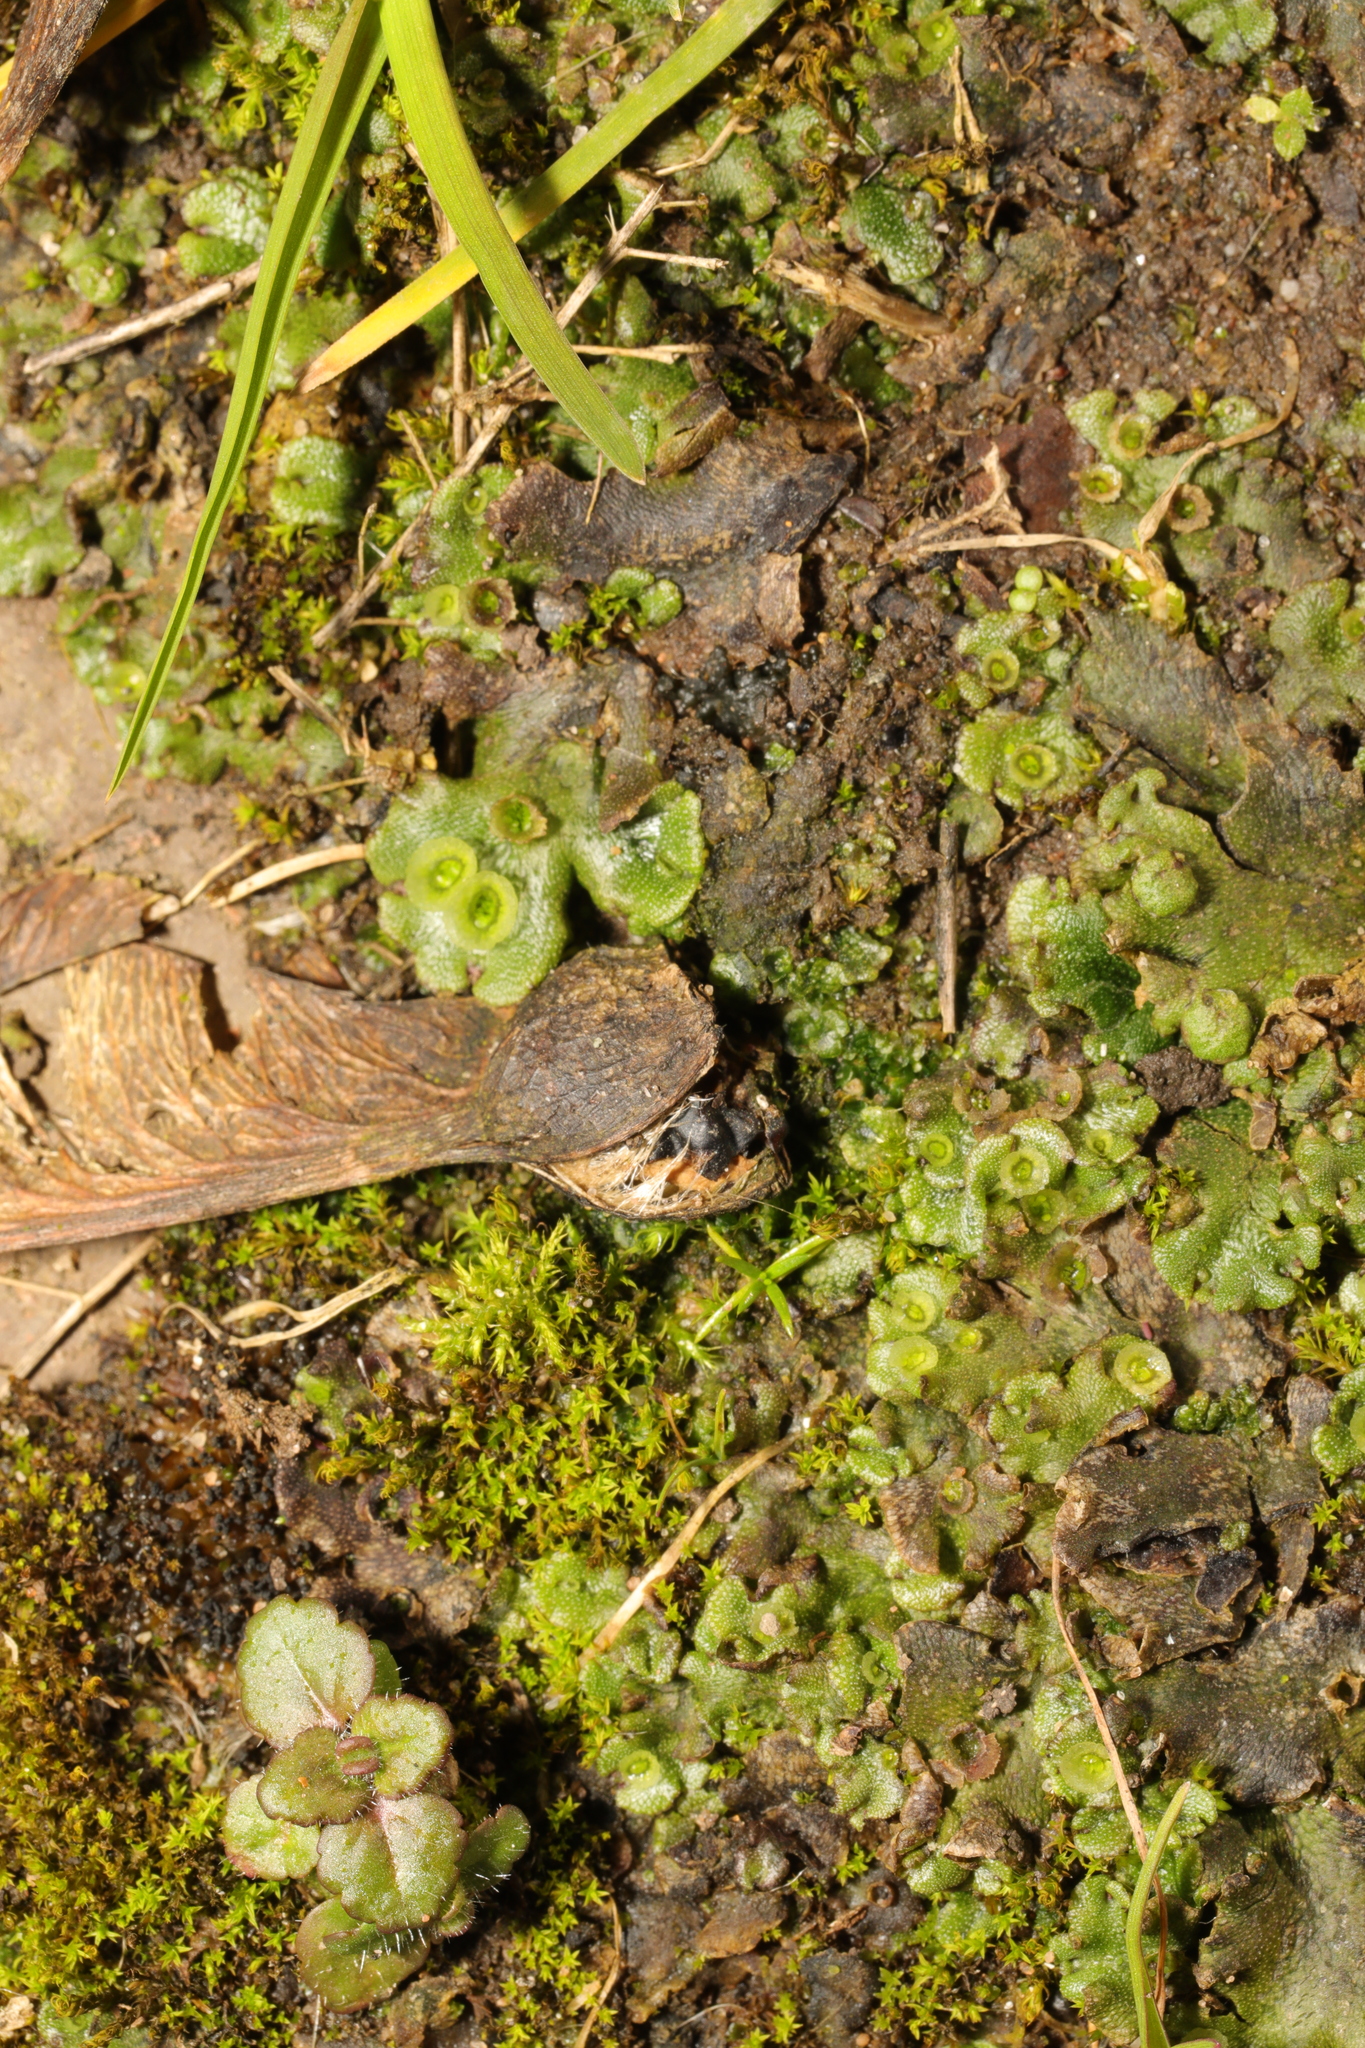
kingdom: Plantae
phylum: Marchantiophyta
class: Marchantiopsida
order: Marchantiales
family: Marchantiaceae
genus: Marchantia
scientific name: Marchantia polymorpha
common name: Common liverwort
